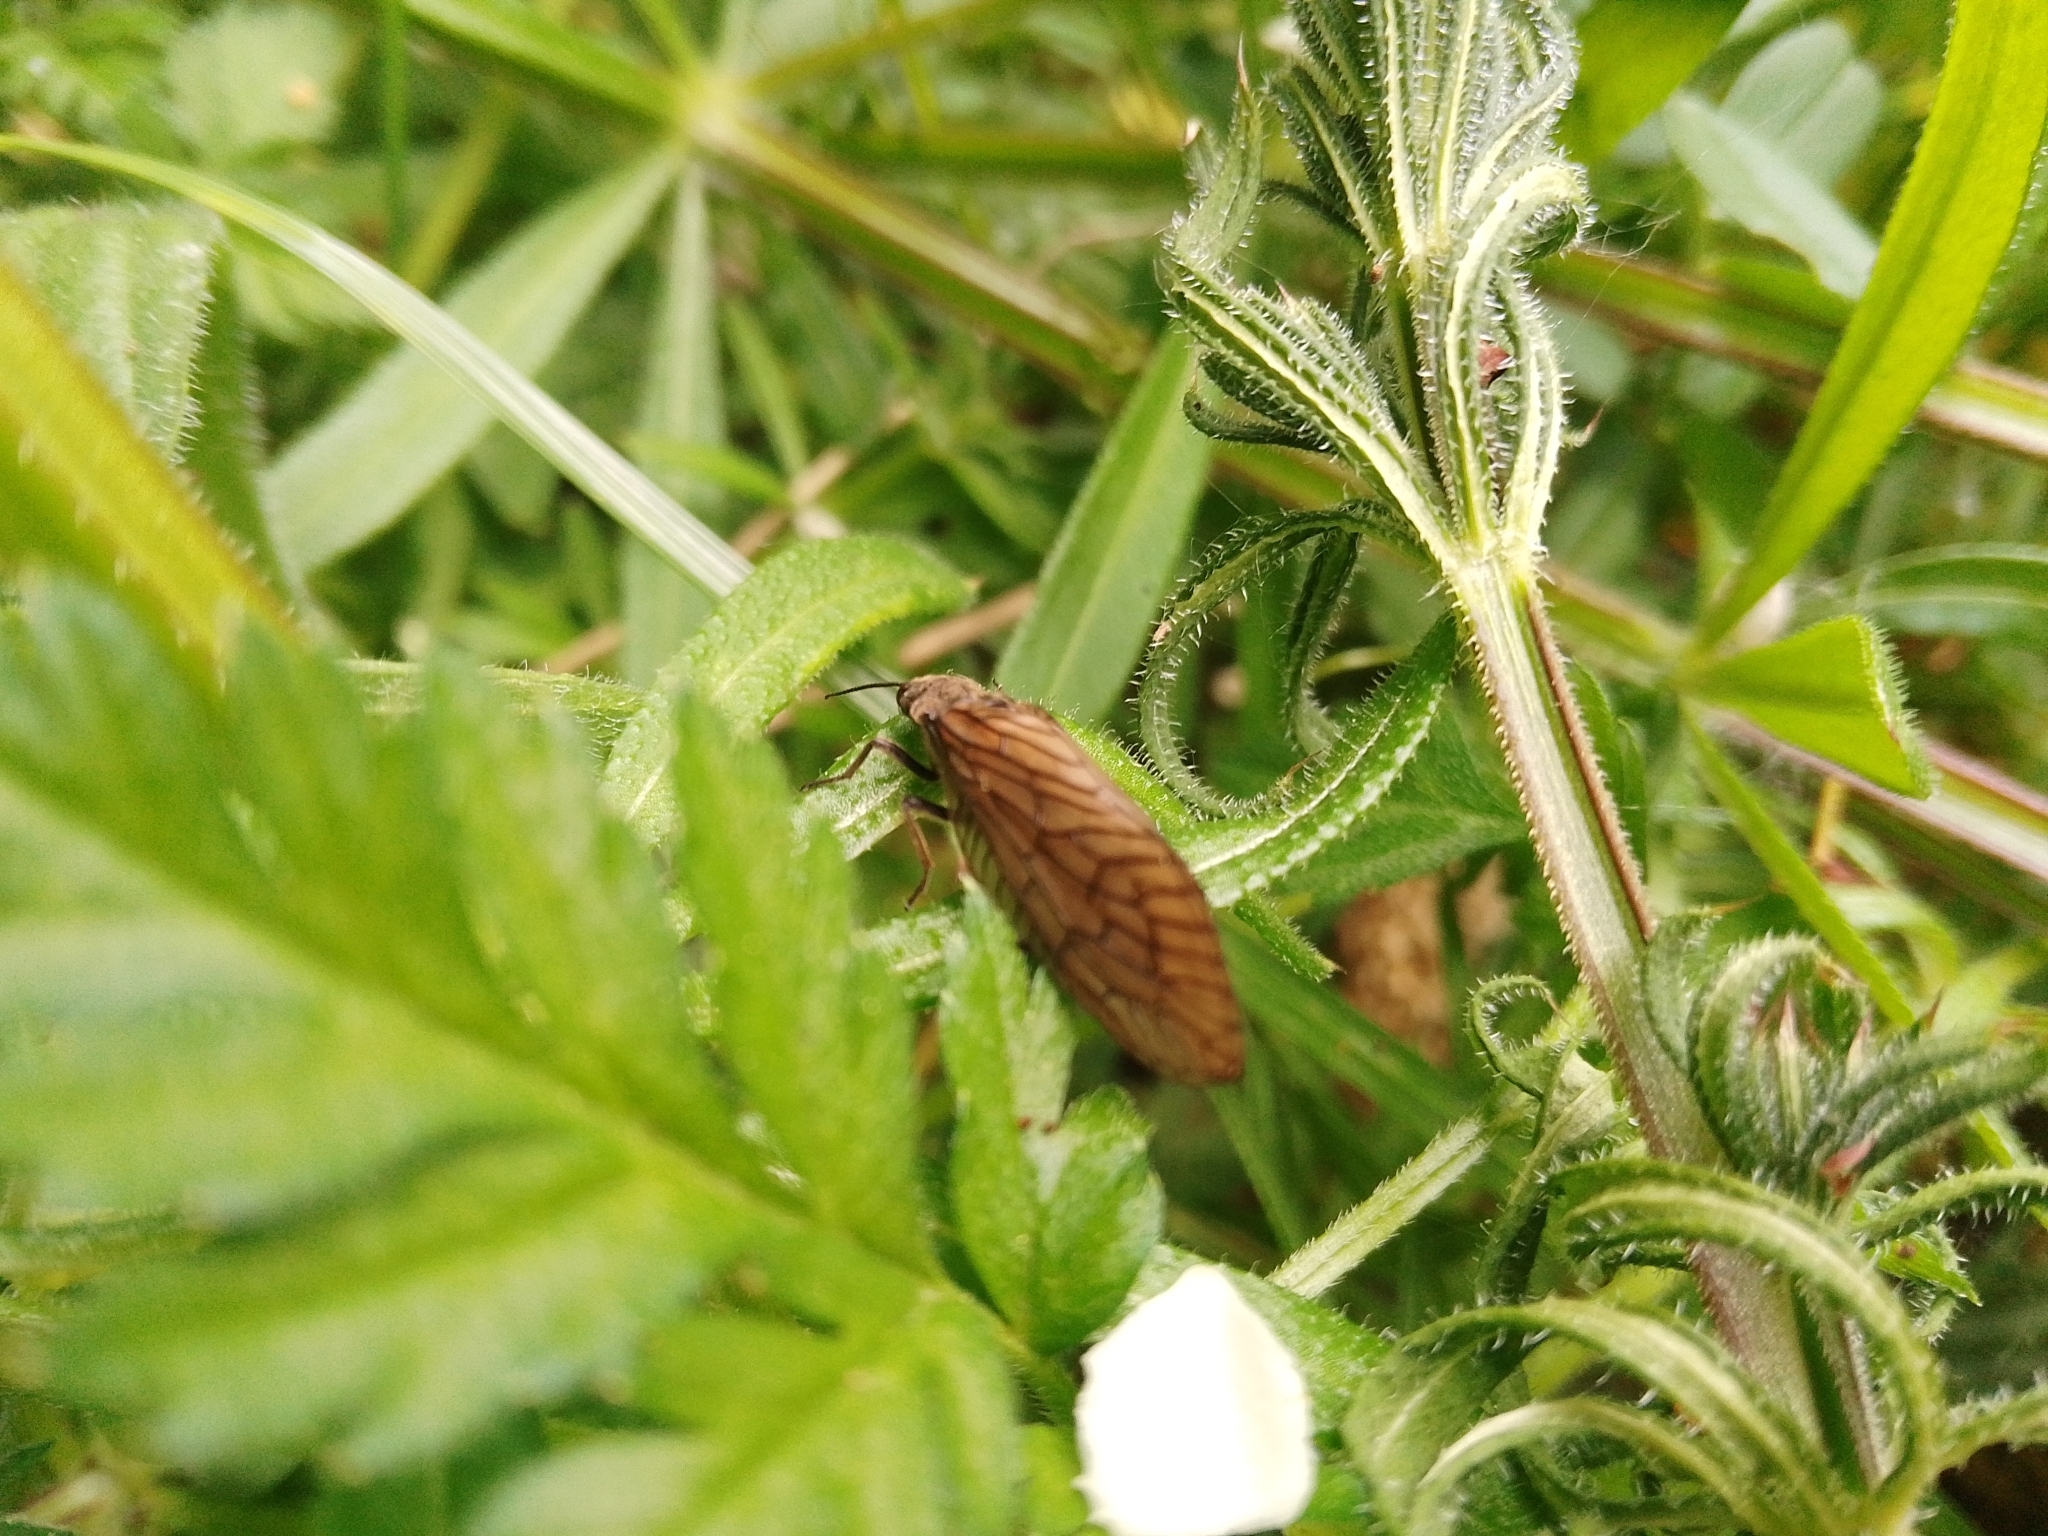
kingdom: Animalia
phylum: Arthropoda
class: Insecta
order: Megaloptera
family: Sialidae
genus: Sialis
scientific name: Sialis
